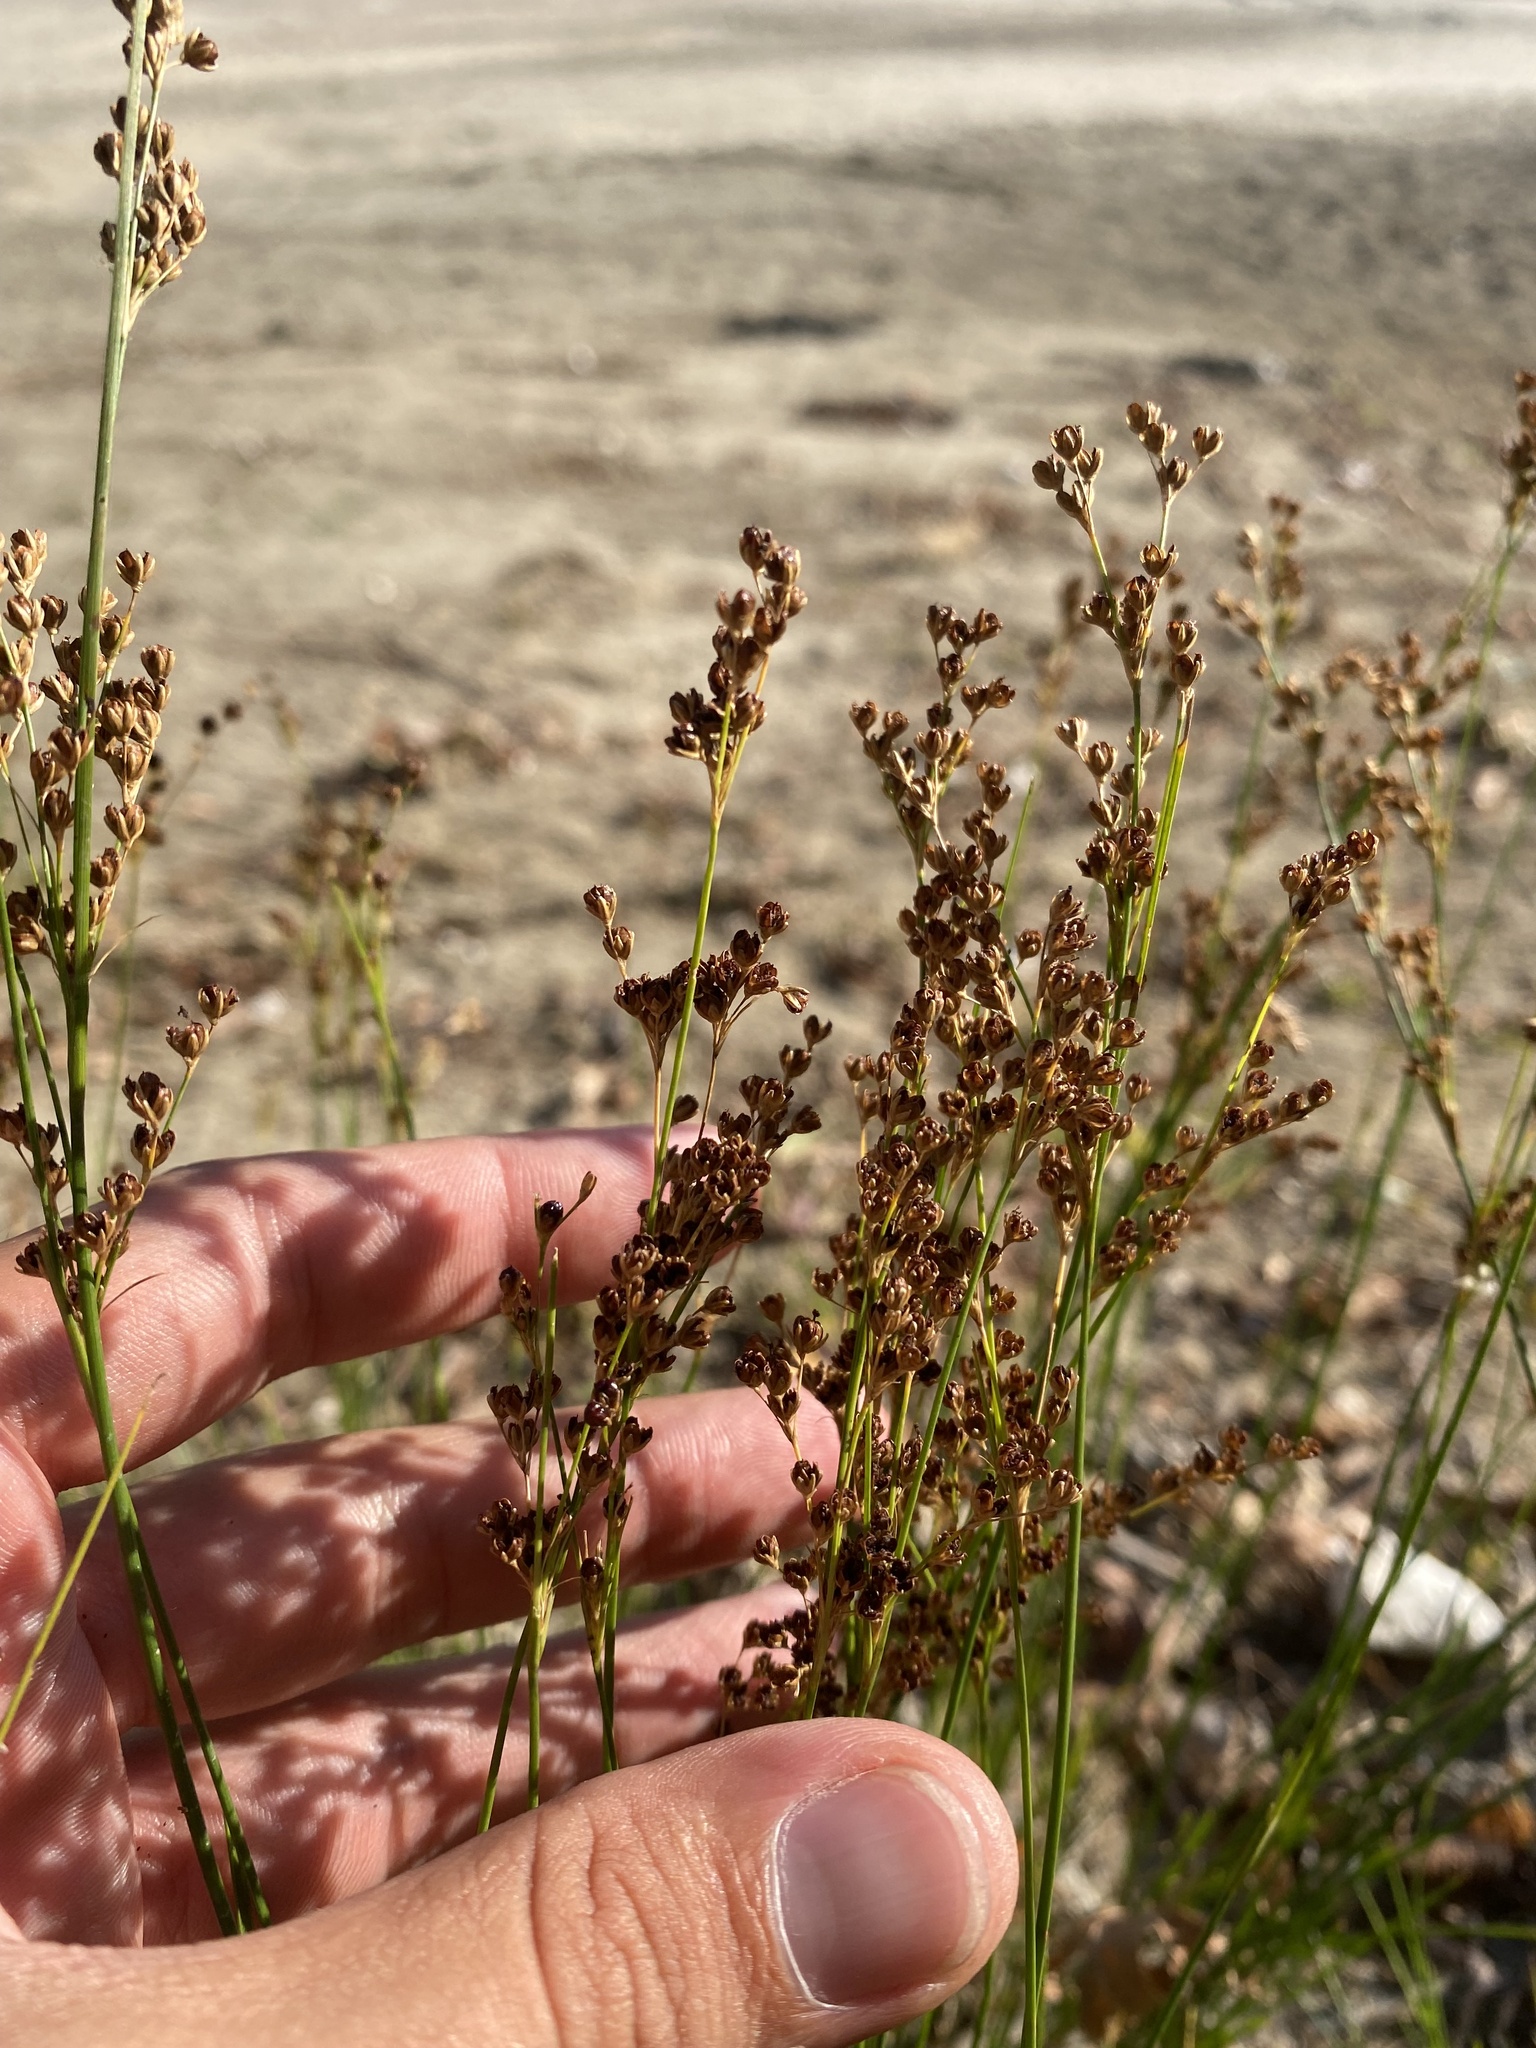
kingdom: Plantae
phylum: Tracheophyta
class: Liliopsida
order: Poales
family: Juncaceae
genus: Juncus
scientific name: Juncus compressus
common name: Round-fruited rush
